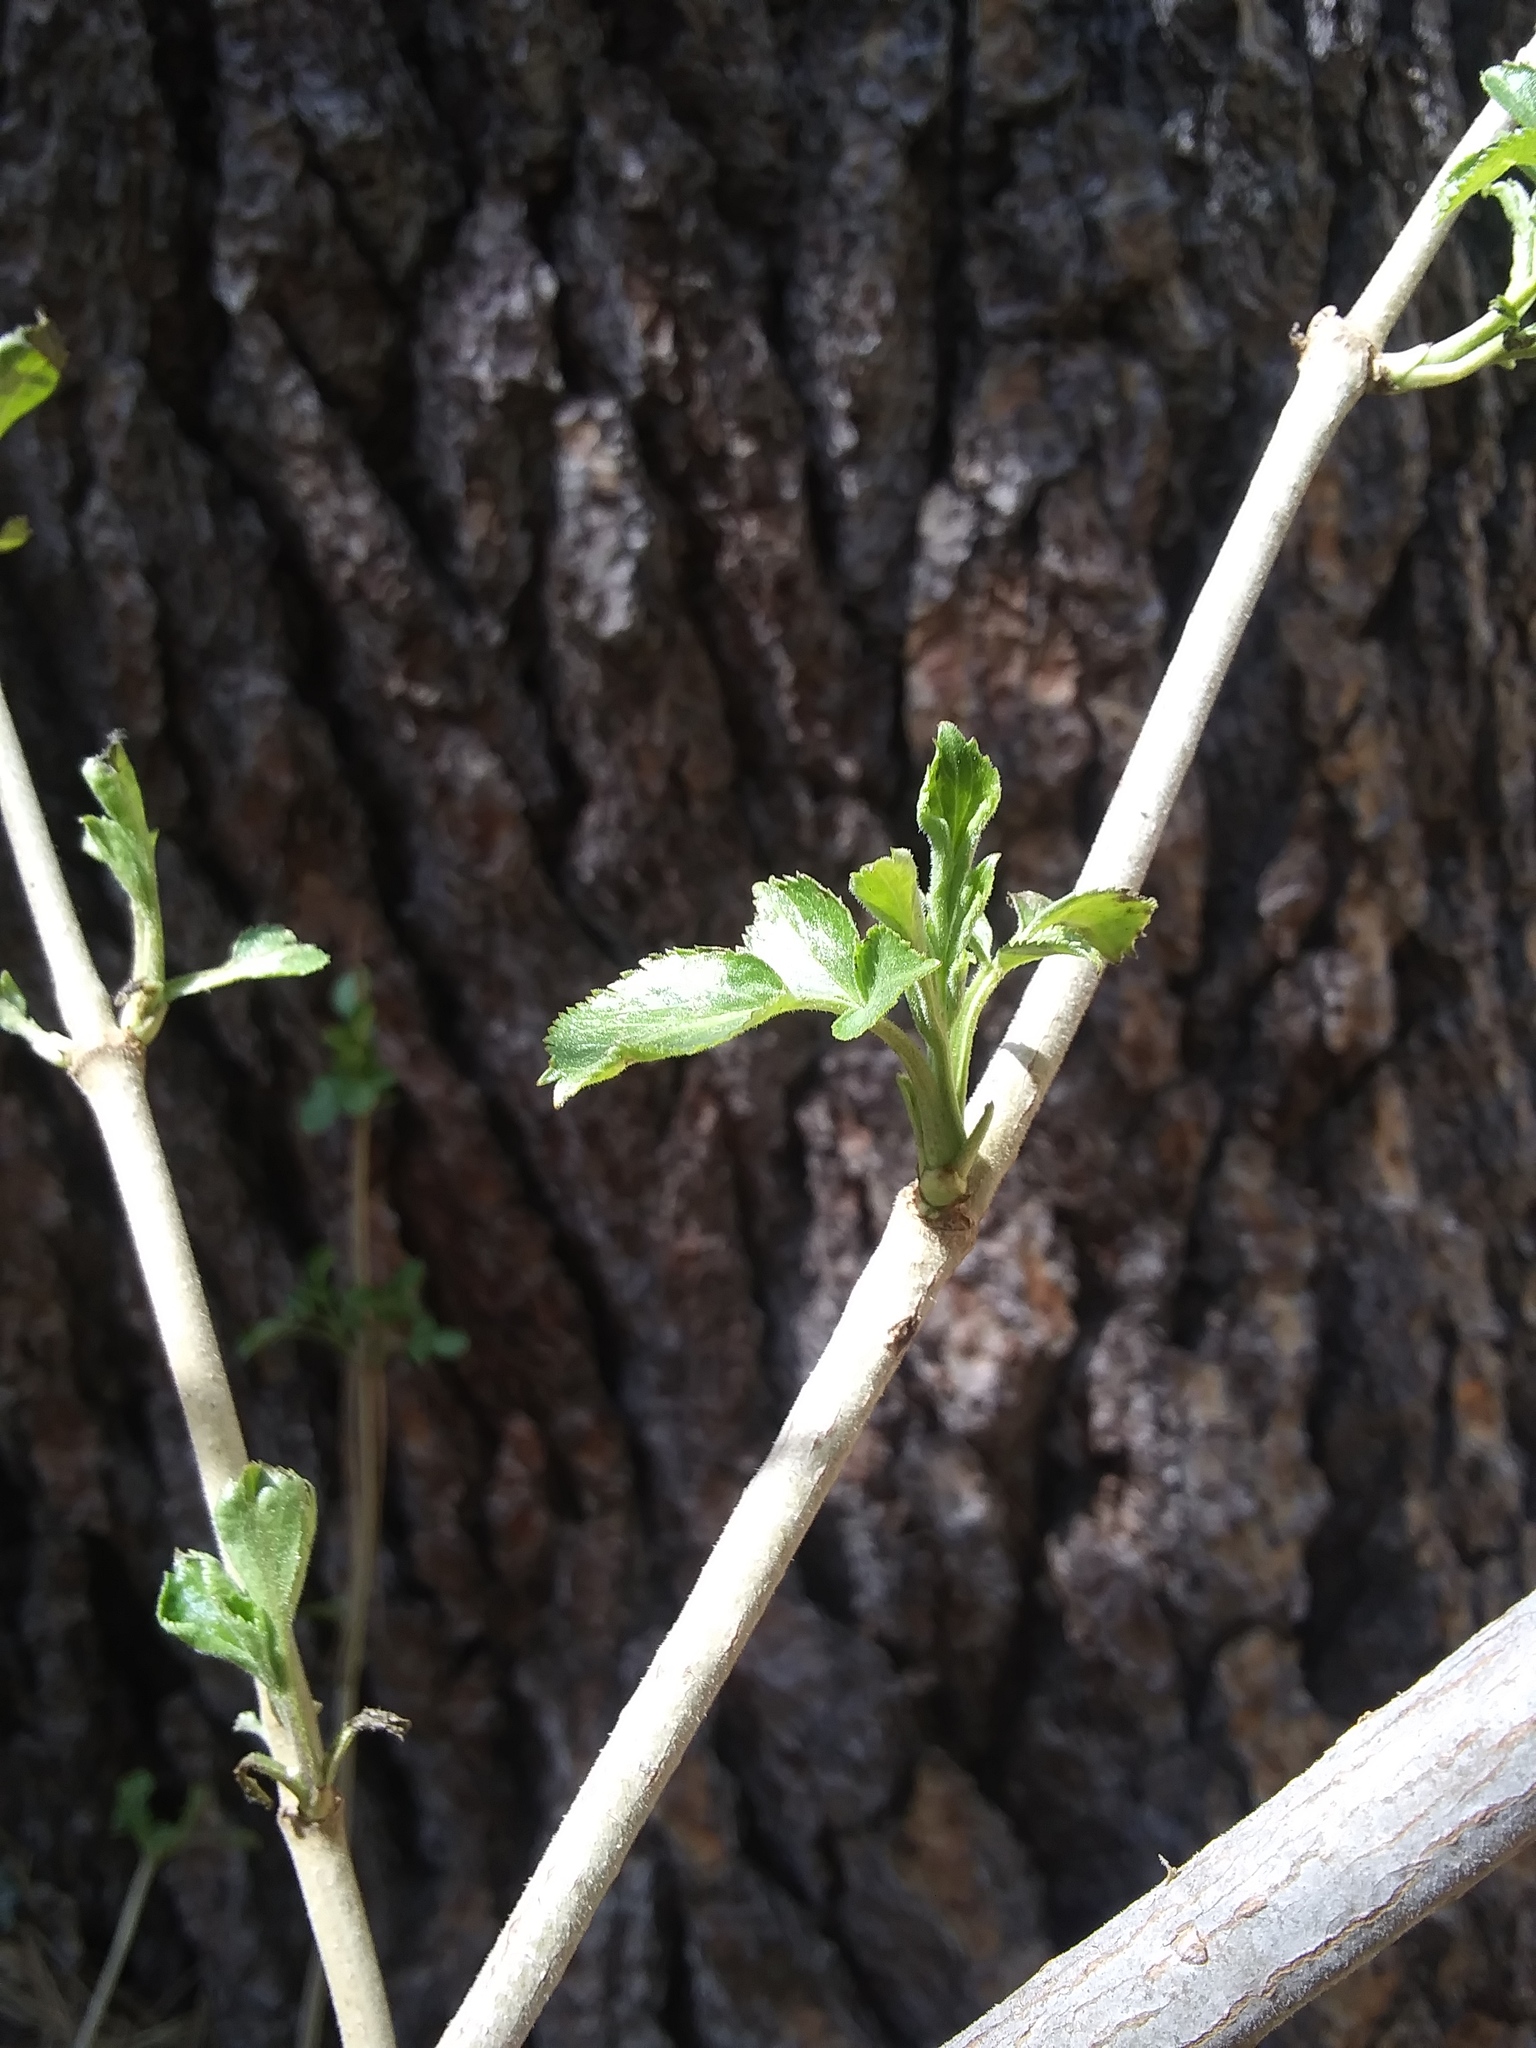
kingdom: Plantae
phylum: Tracheophyta
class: Magnoliopsida
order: Dipsacales
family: Viburnaceae
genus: Sambucus
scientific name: Sambucus cerulea
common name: Blue elder
